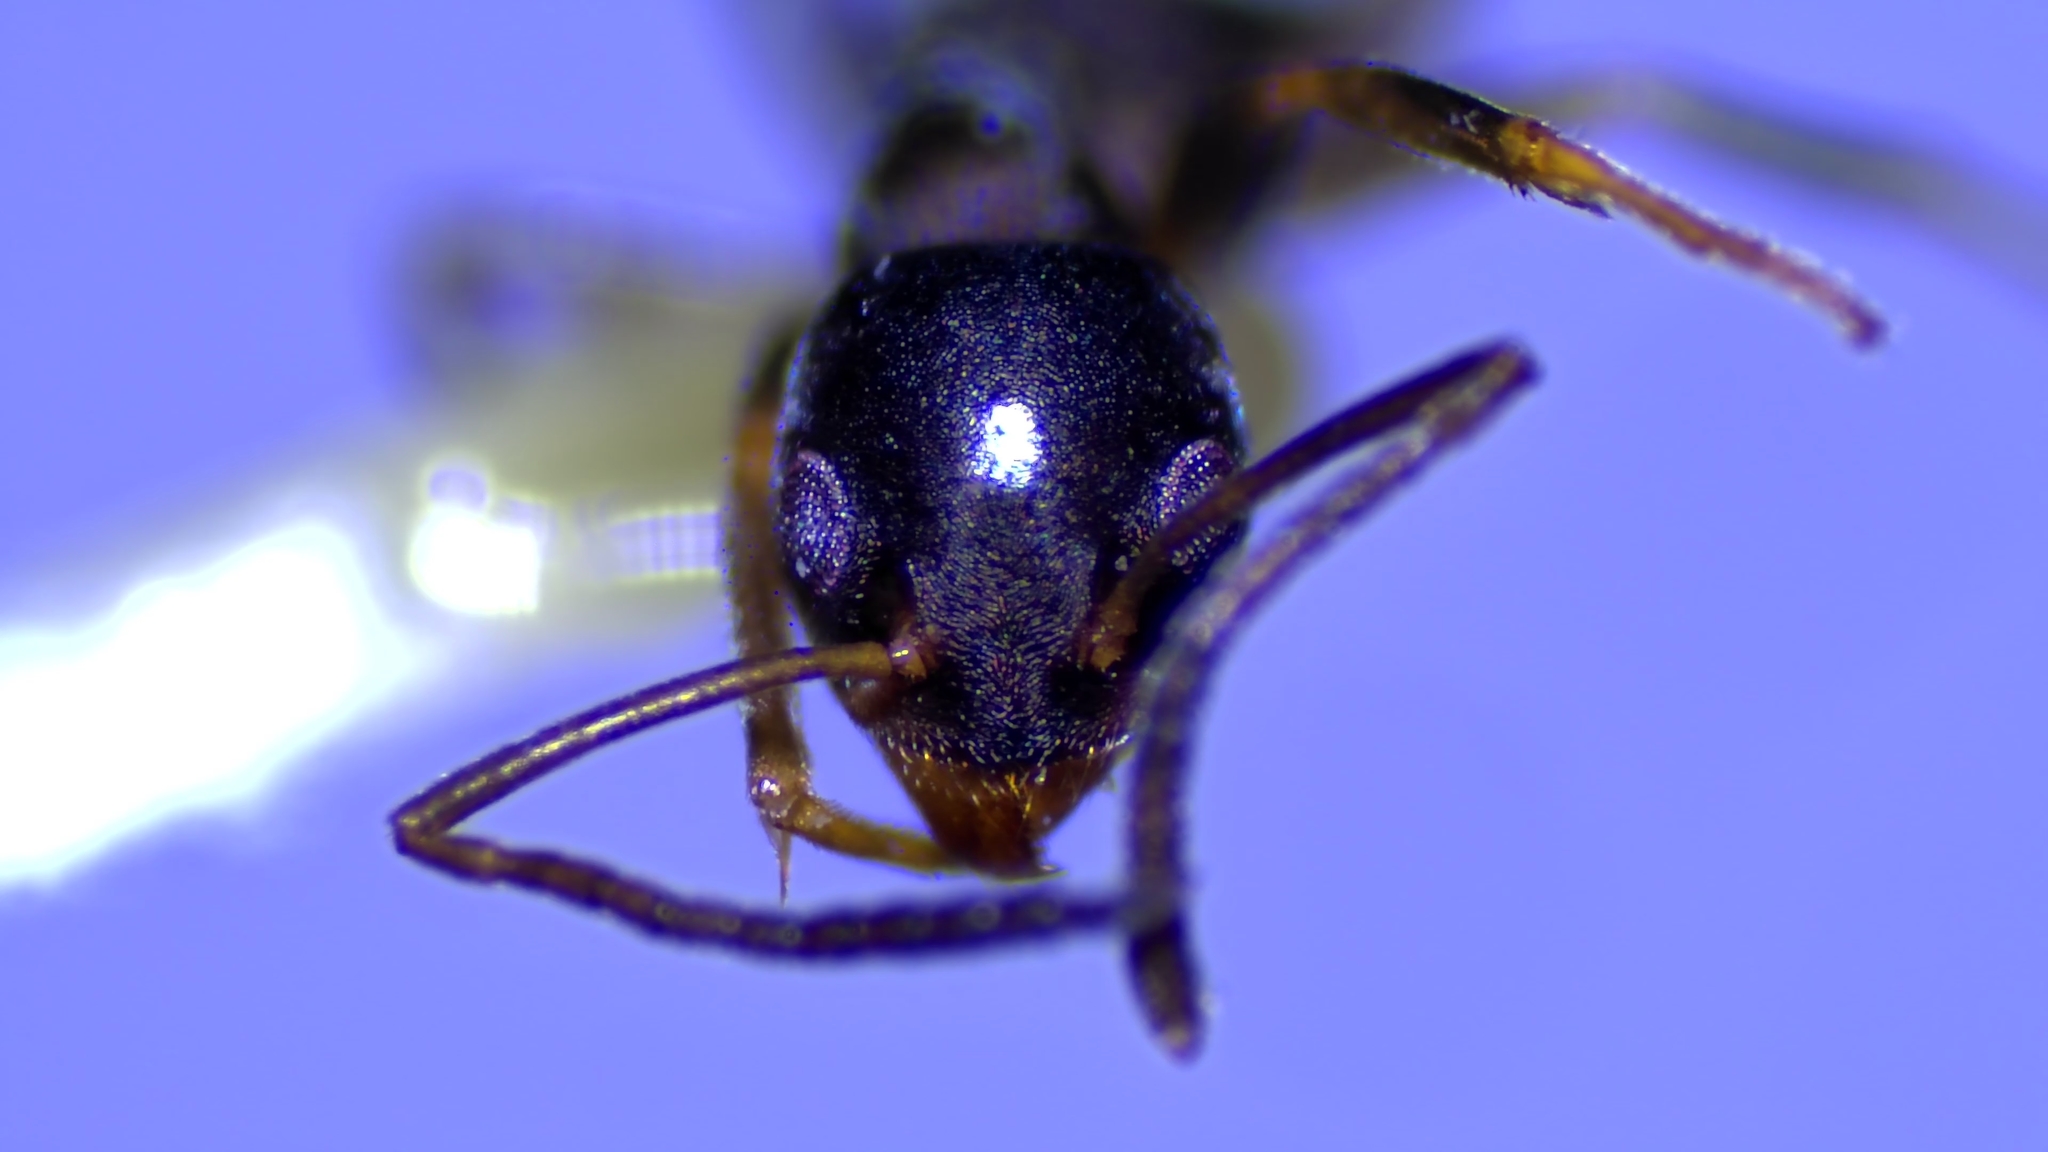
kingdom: Animalia
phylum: Arthropoda
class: Insecta
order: Hymenoptera
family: Formicidae
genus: Tapinoma
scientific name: Tapinoma sessile
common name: Odorous house ant
